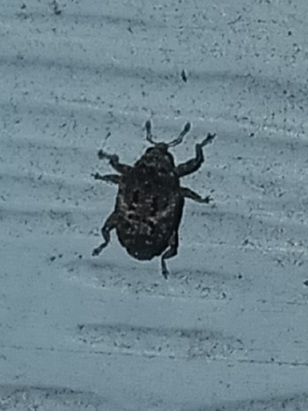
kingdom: Animalia
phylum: Arthropoda
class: Insecta
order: Coleoptera
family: Curculionidae
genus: Eubulus
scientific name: Eubulus
